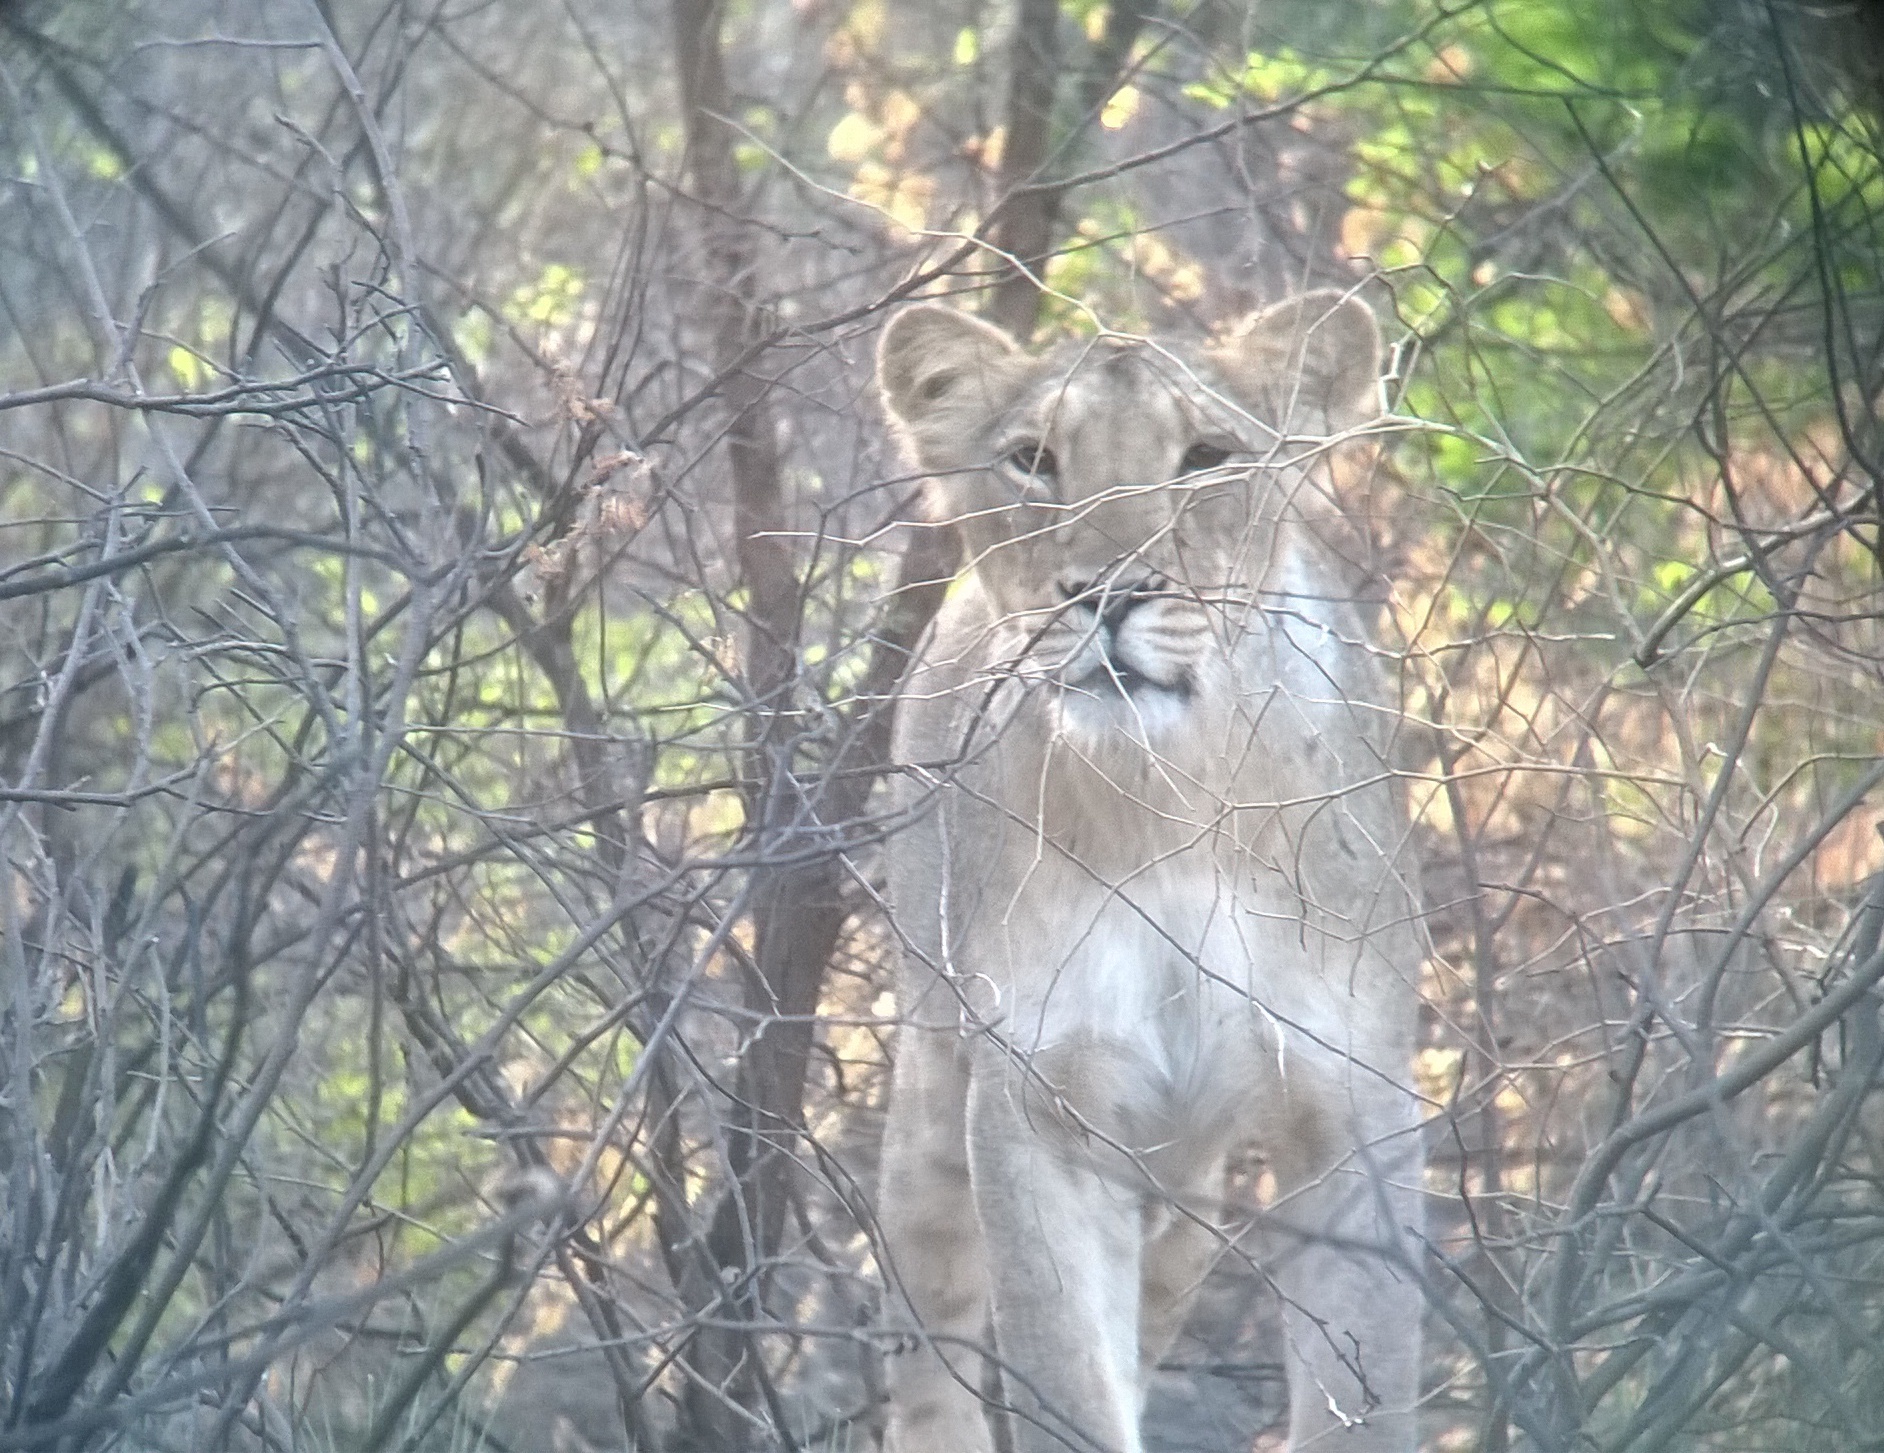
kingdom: Animalia
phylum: Chordata
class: Mammalia
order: Carnivora
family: Felidae
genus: Panthera
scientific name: Panthera leo
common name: Lion
